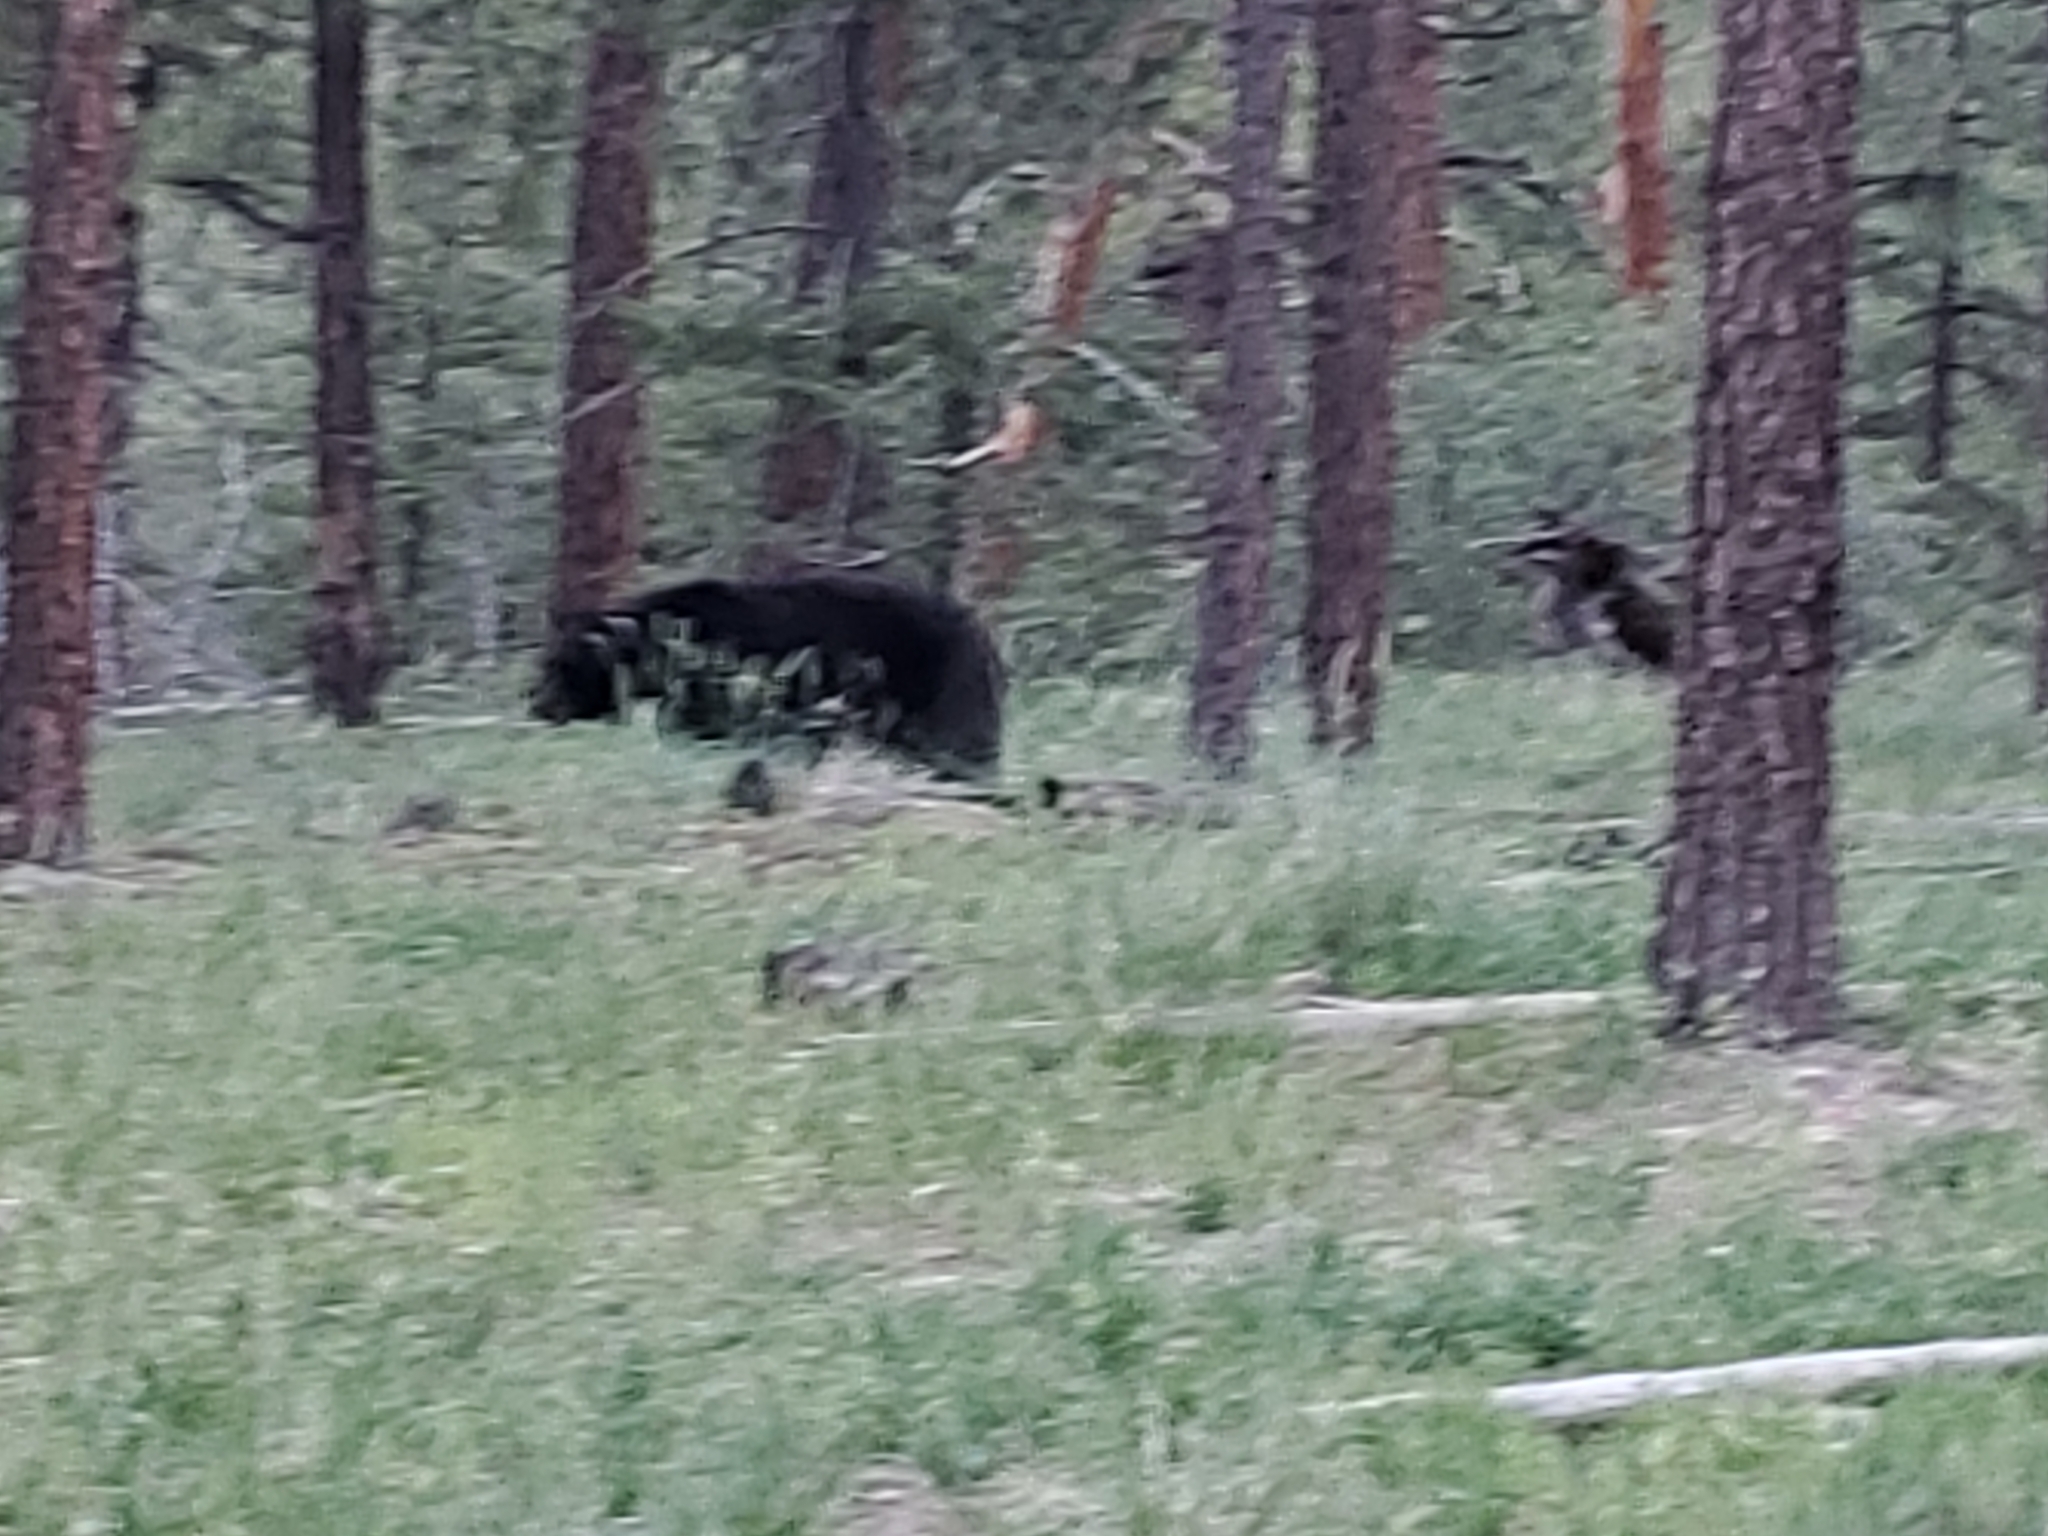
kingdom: Animalia
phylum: Chordata
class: Mammalia
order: Carnivora
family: Ursidae
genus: Ursus
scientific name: Ursus americanus
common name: American black bear
